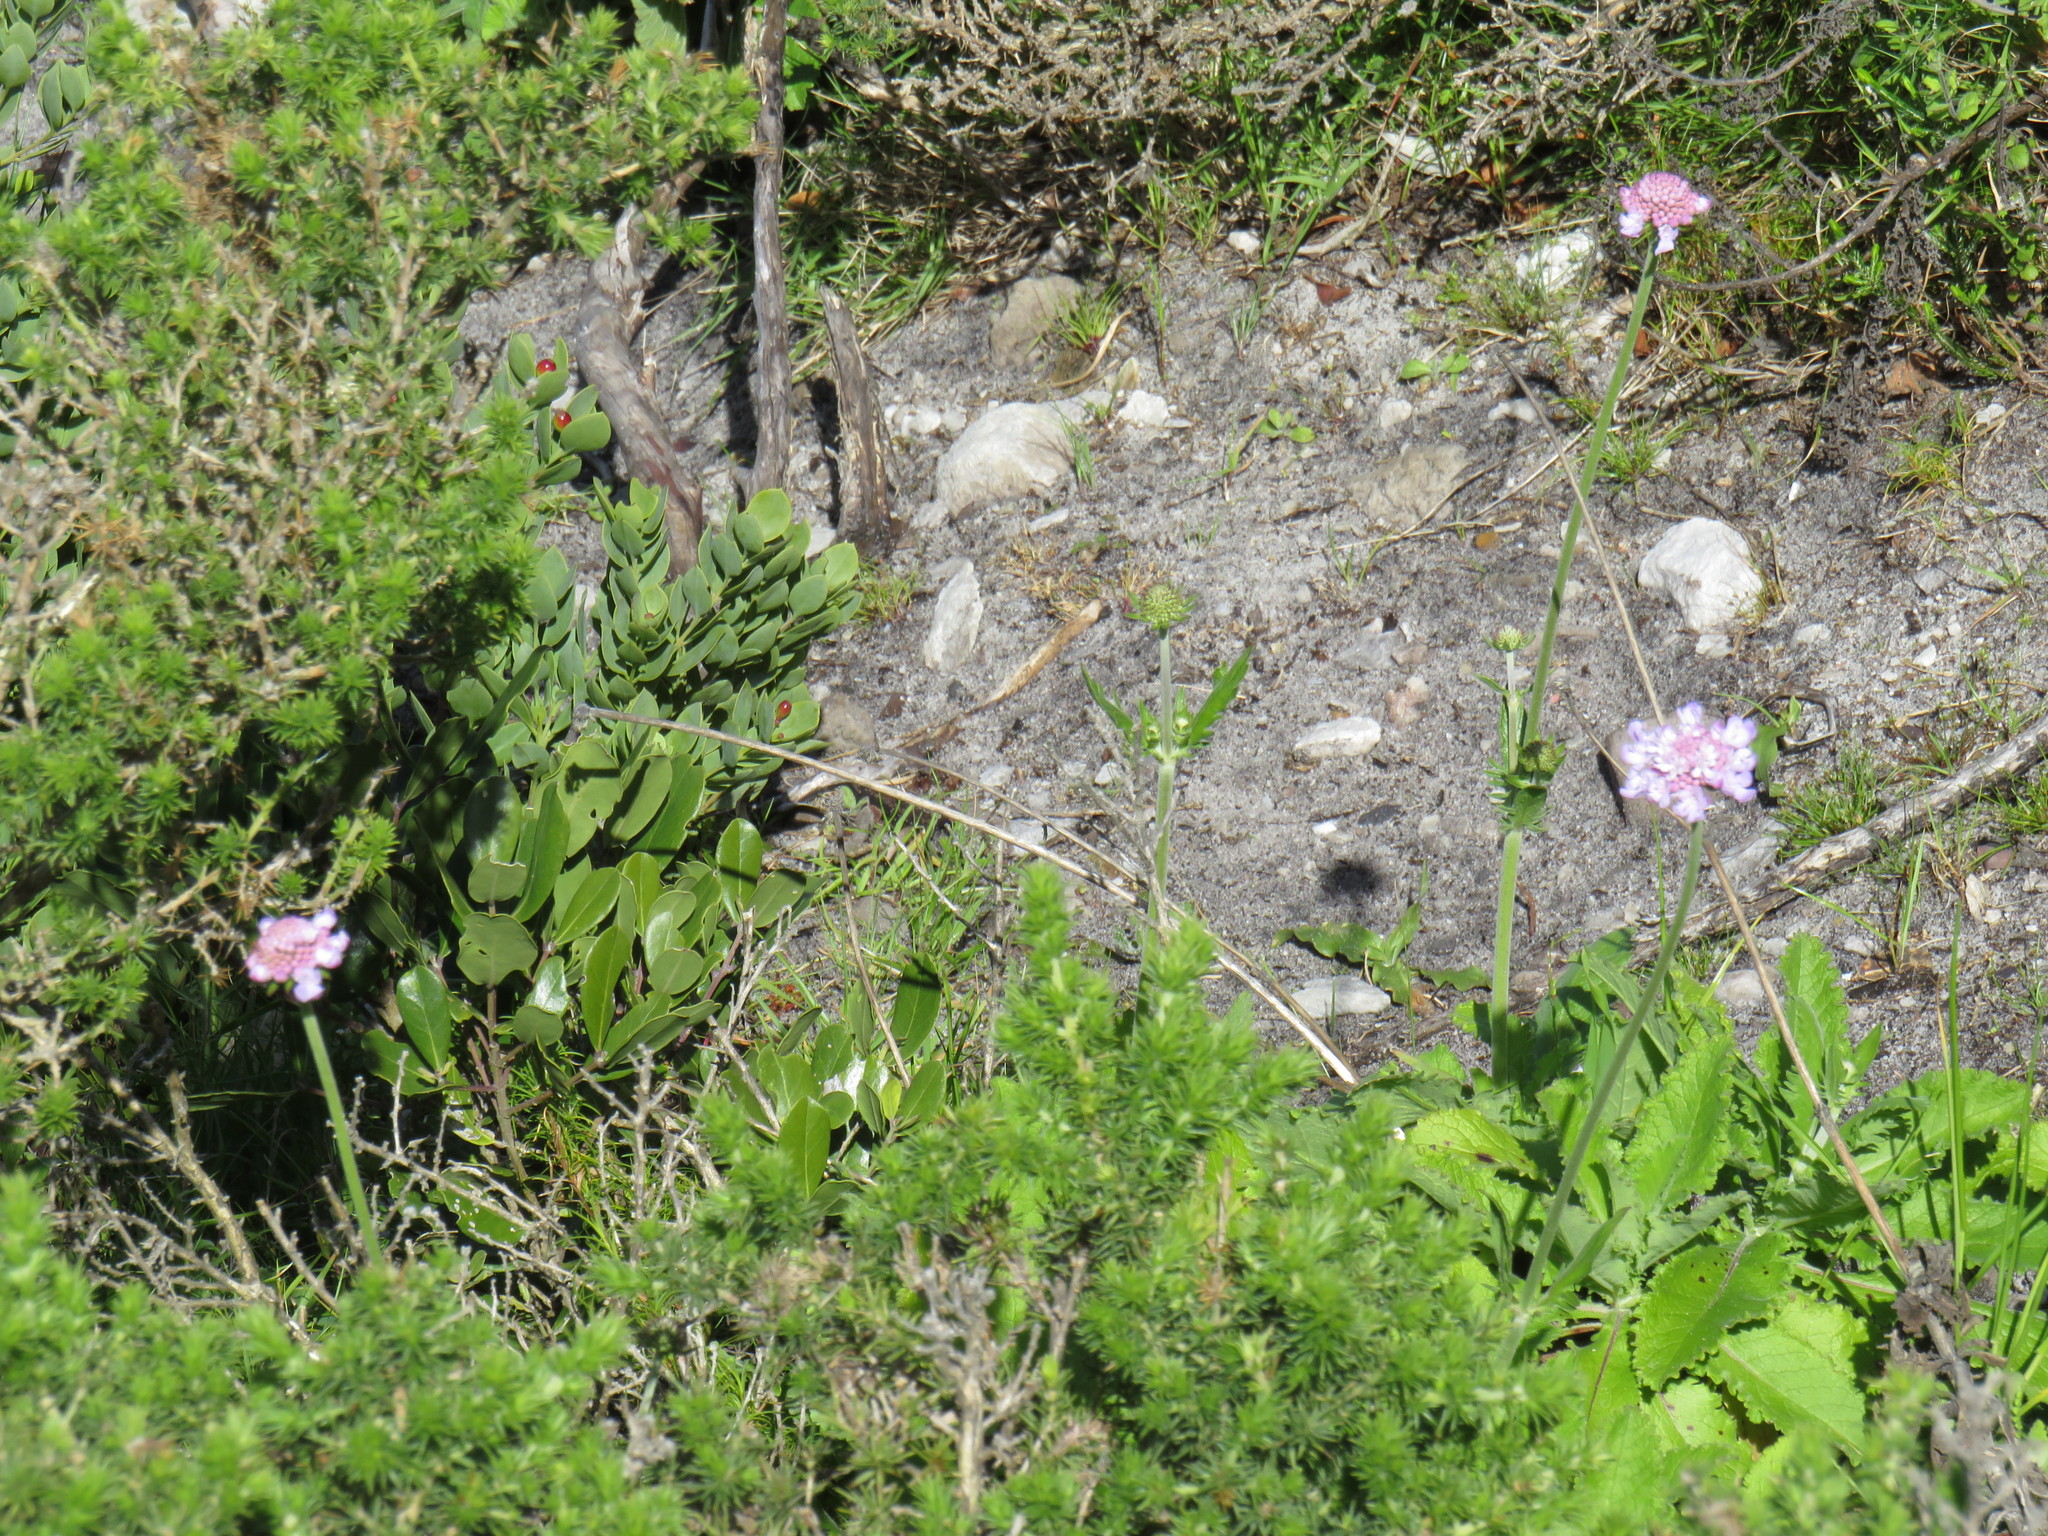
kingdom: Plantae
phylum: Tracheophyta
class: Magnoliopsida
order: Dipsacales
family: Caprifoliaceae
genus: Scabiosa
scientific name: Scabiosa africana
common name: Cape scabious
